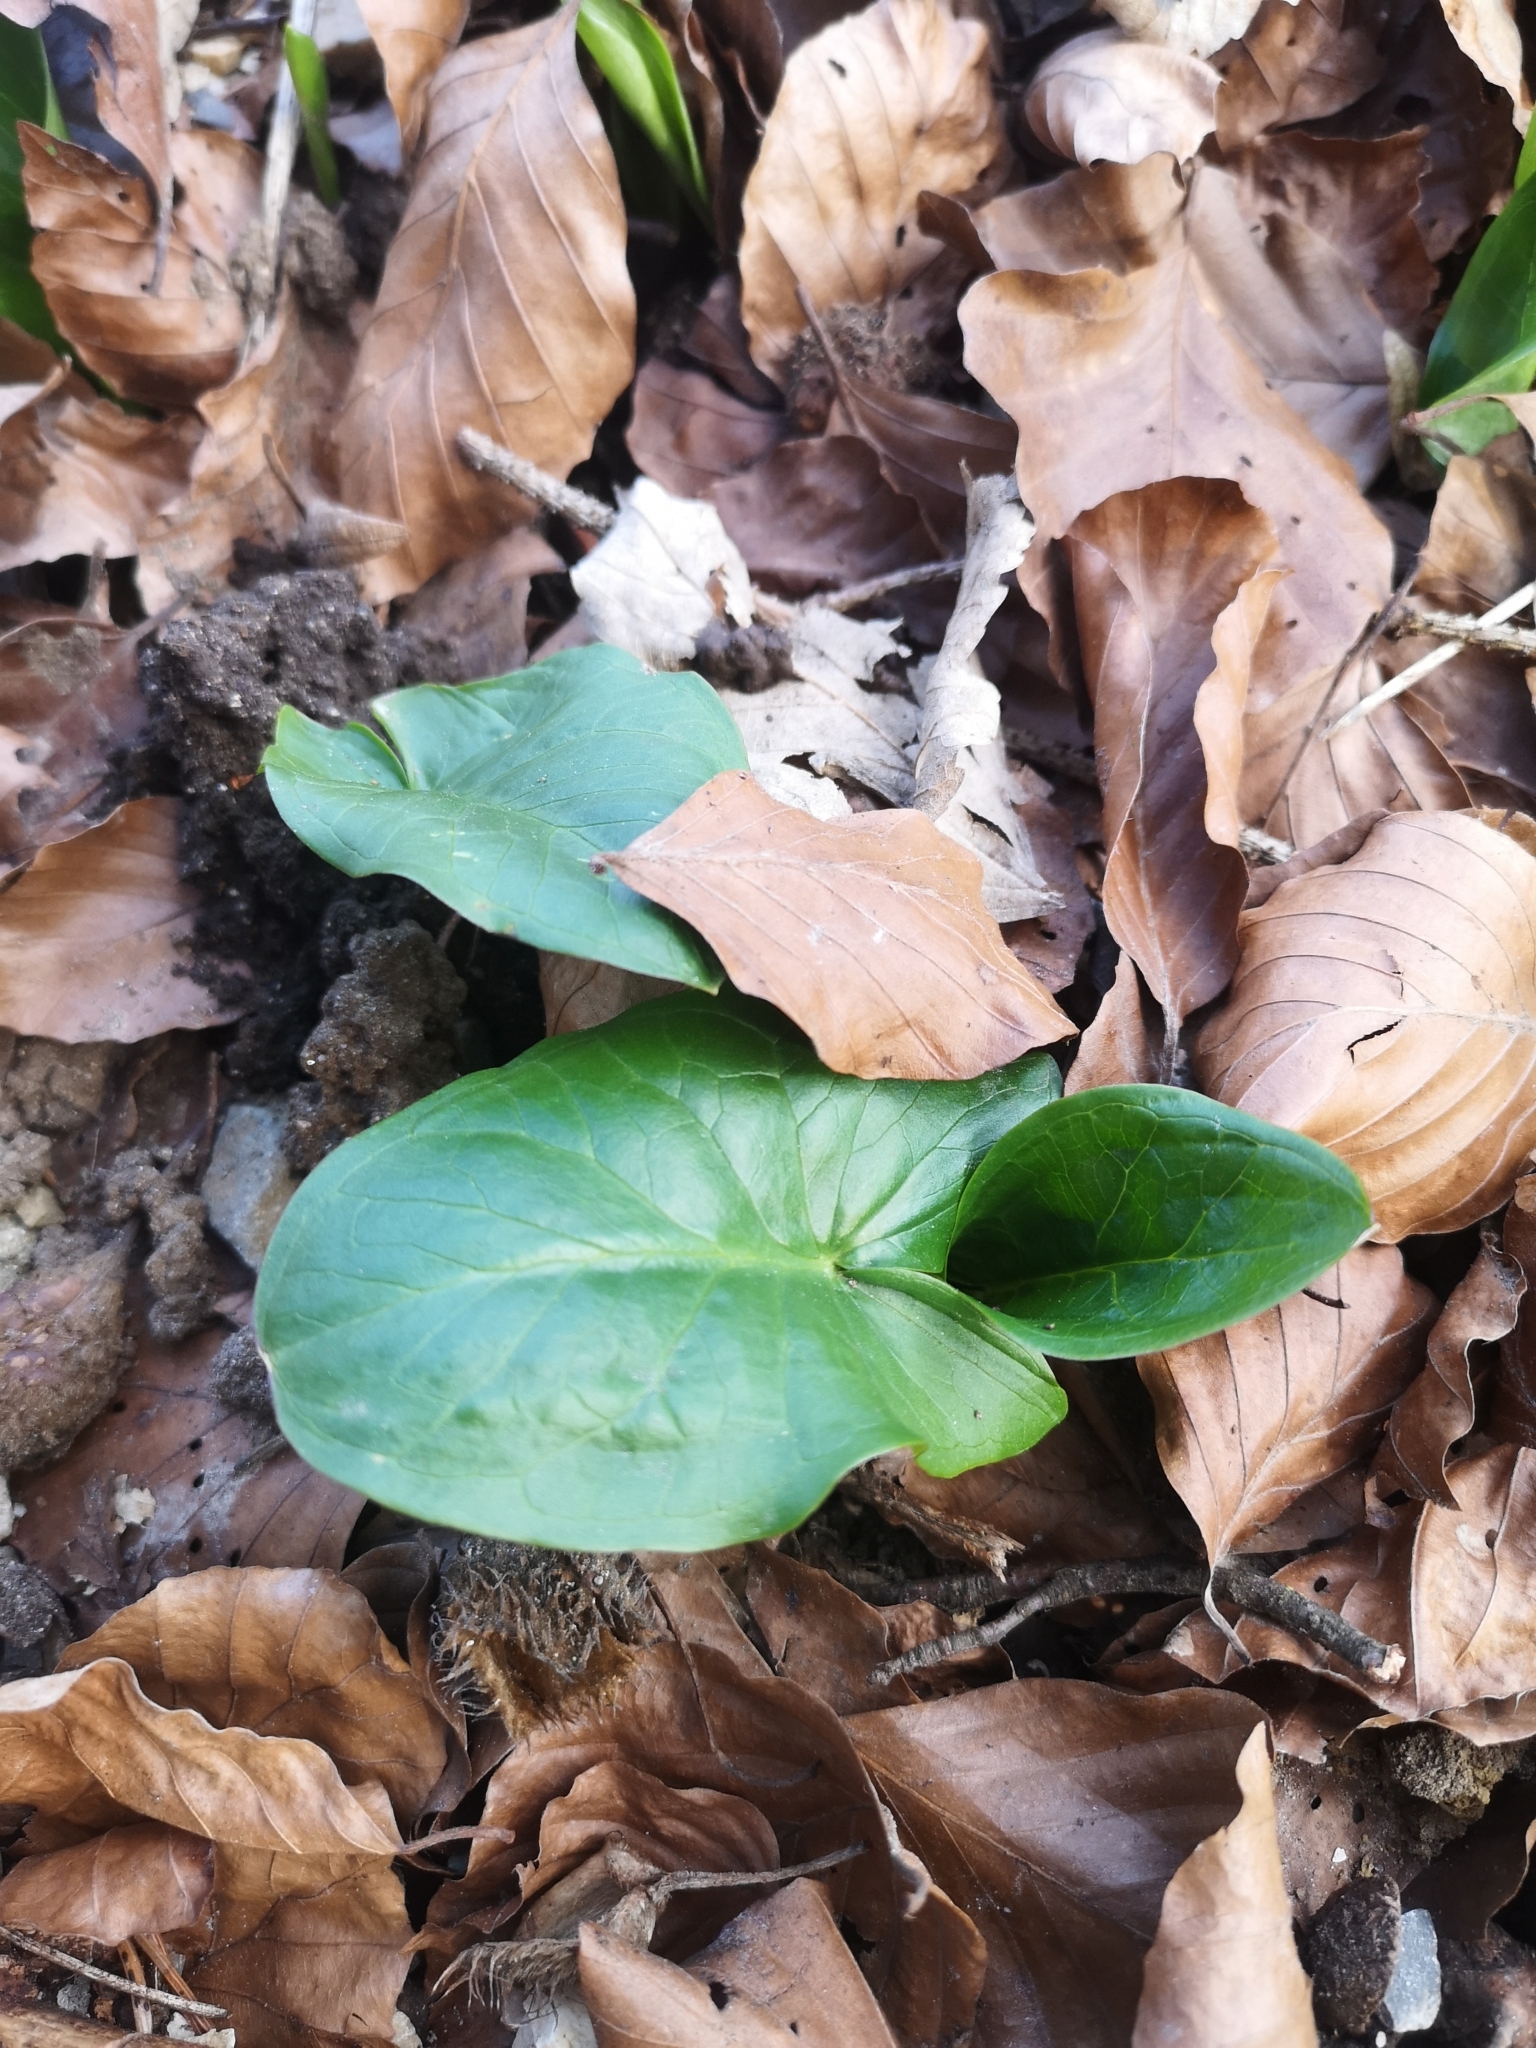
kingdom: Plantae
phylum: Tracheophyta
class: Liliopsida
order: Alismatales
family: Araceae
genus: Arum
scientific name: Arum maculatum
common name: Lords-and-ladies
